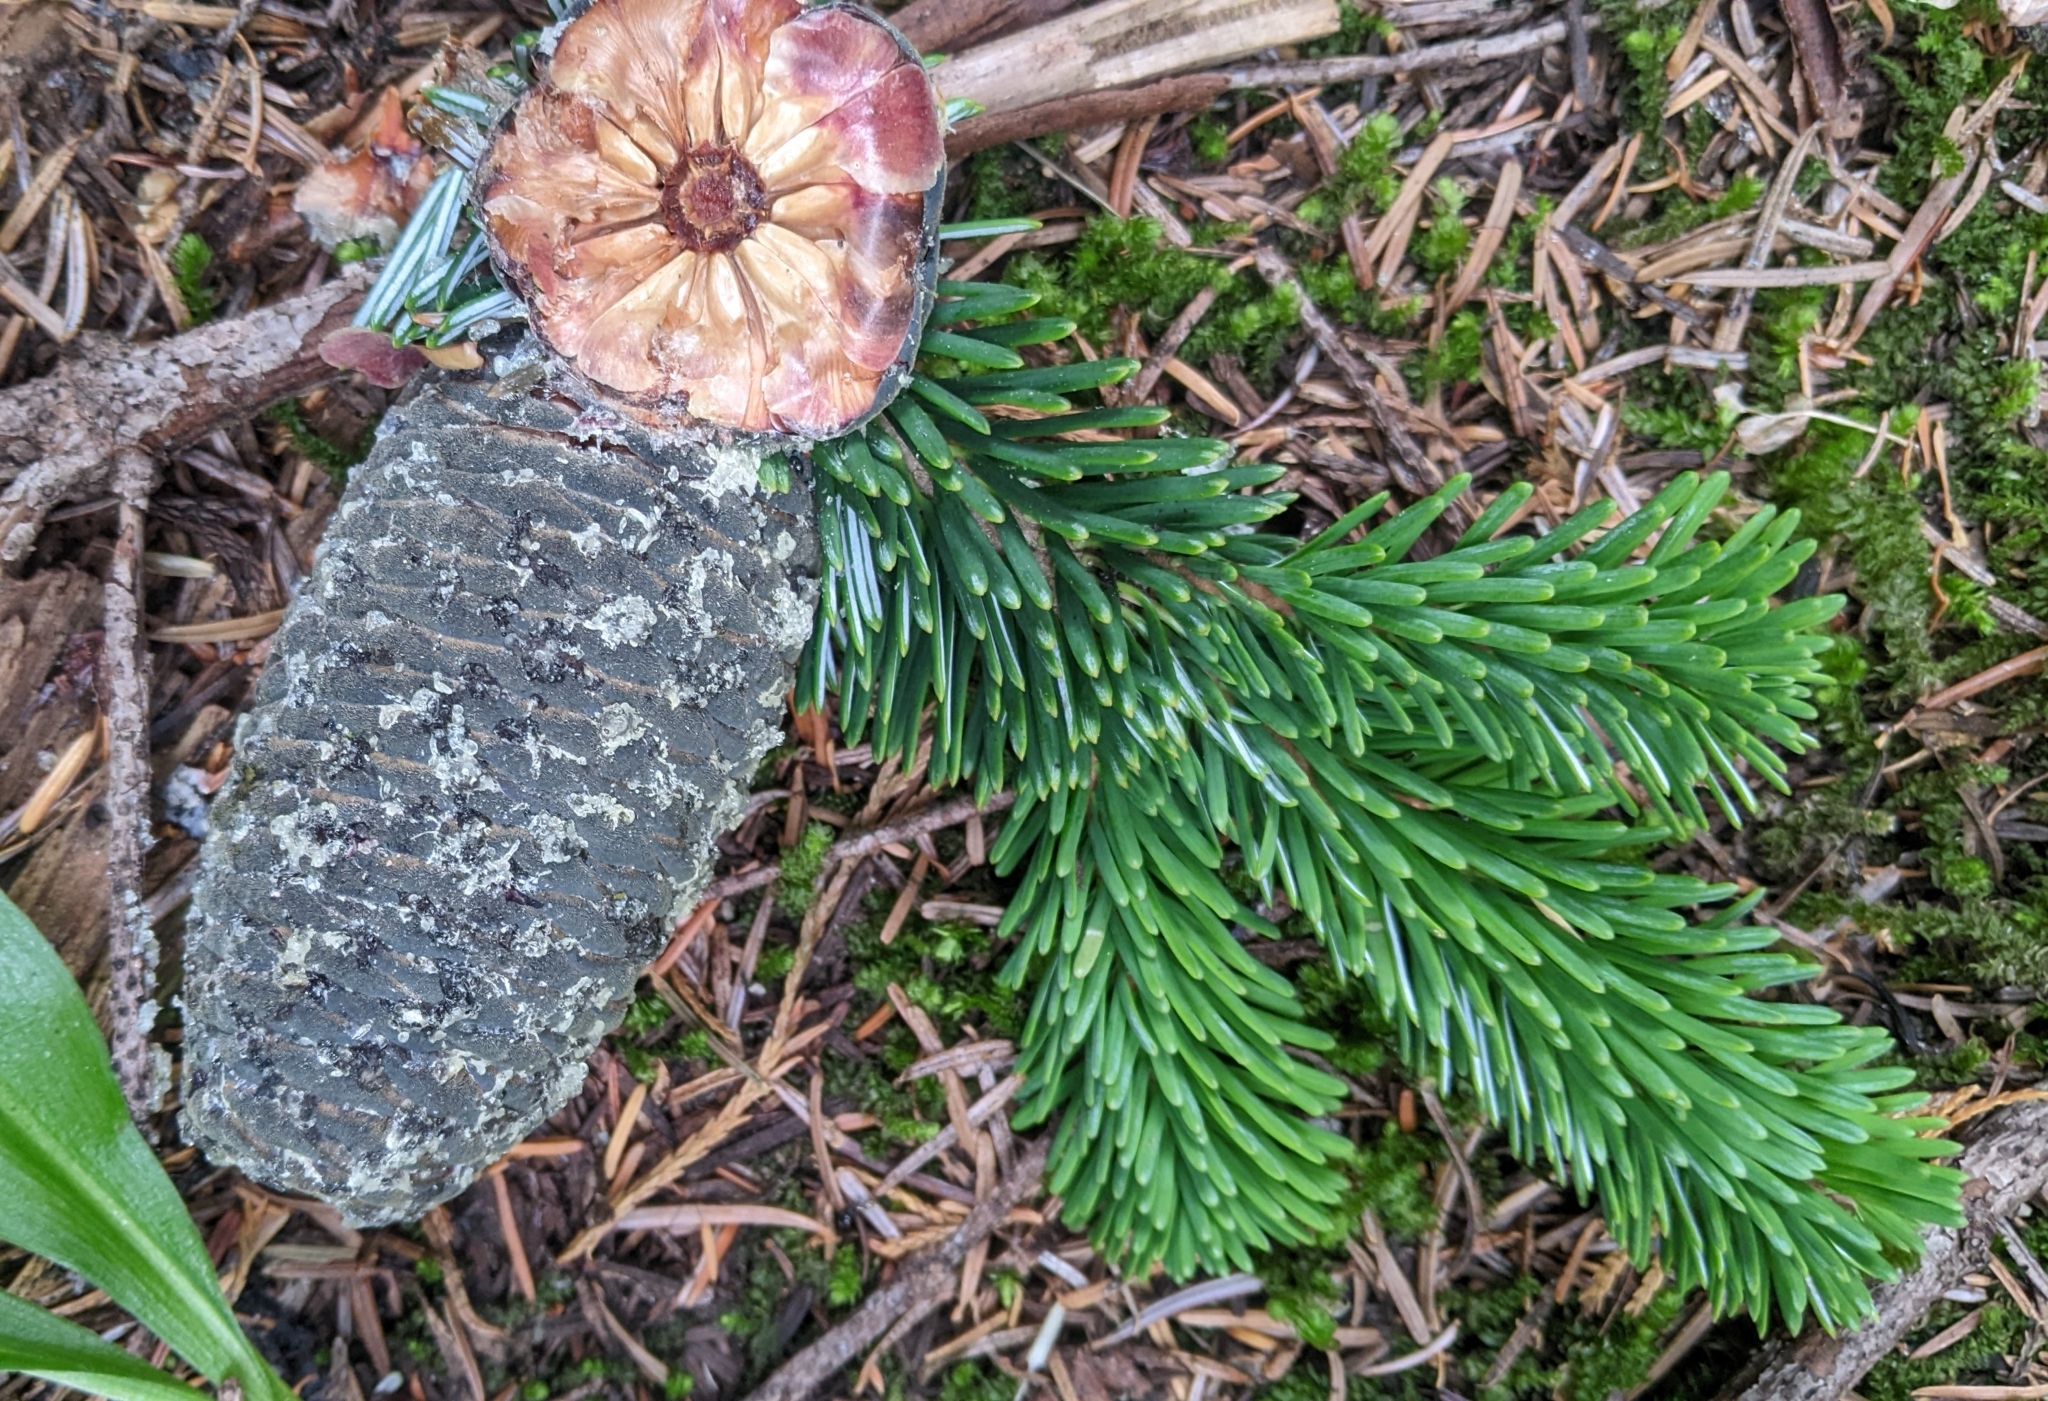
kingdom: Plantae
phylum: Tracheophyta
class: Pinopsida
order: Pinales
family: Pinaceae
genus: Abies
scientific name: Abies amabilis
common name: Pacific silver fir
